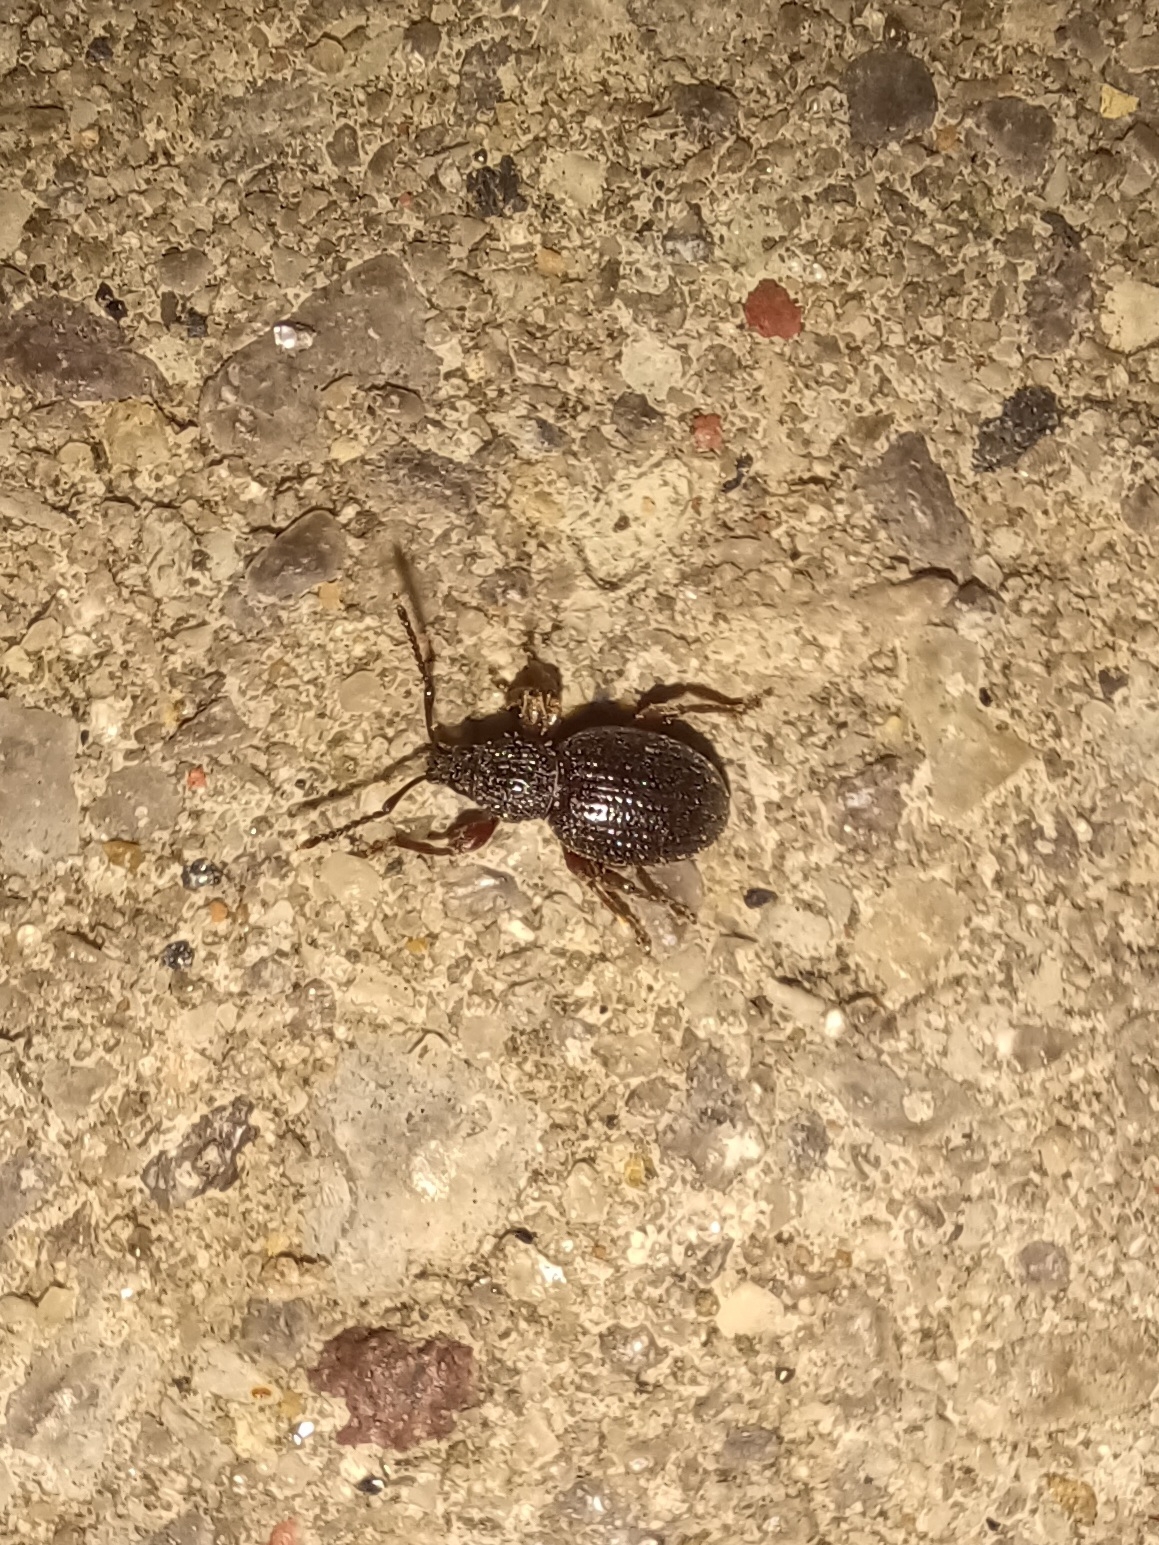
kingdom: Animalia
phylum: Arthropoda
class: Insecta
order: Coleoptera
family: Curculionidae
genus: Otiorhynchus
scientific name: Otiorhynchus ovatus
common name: Strawberry root weevil
